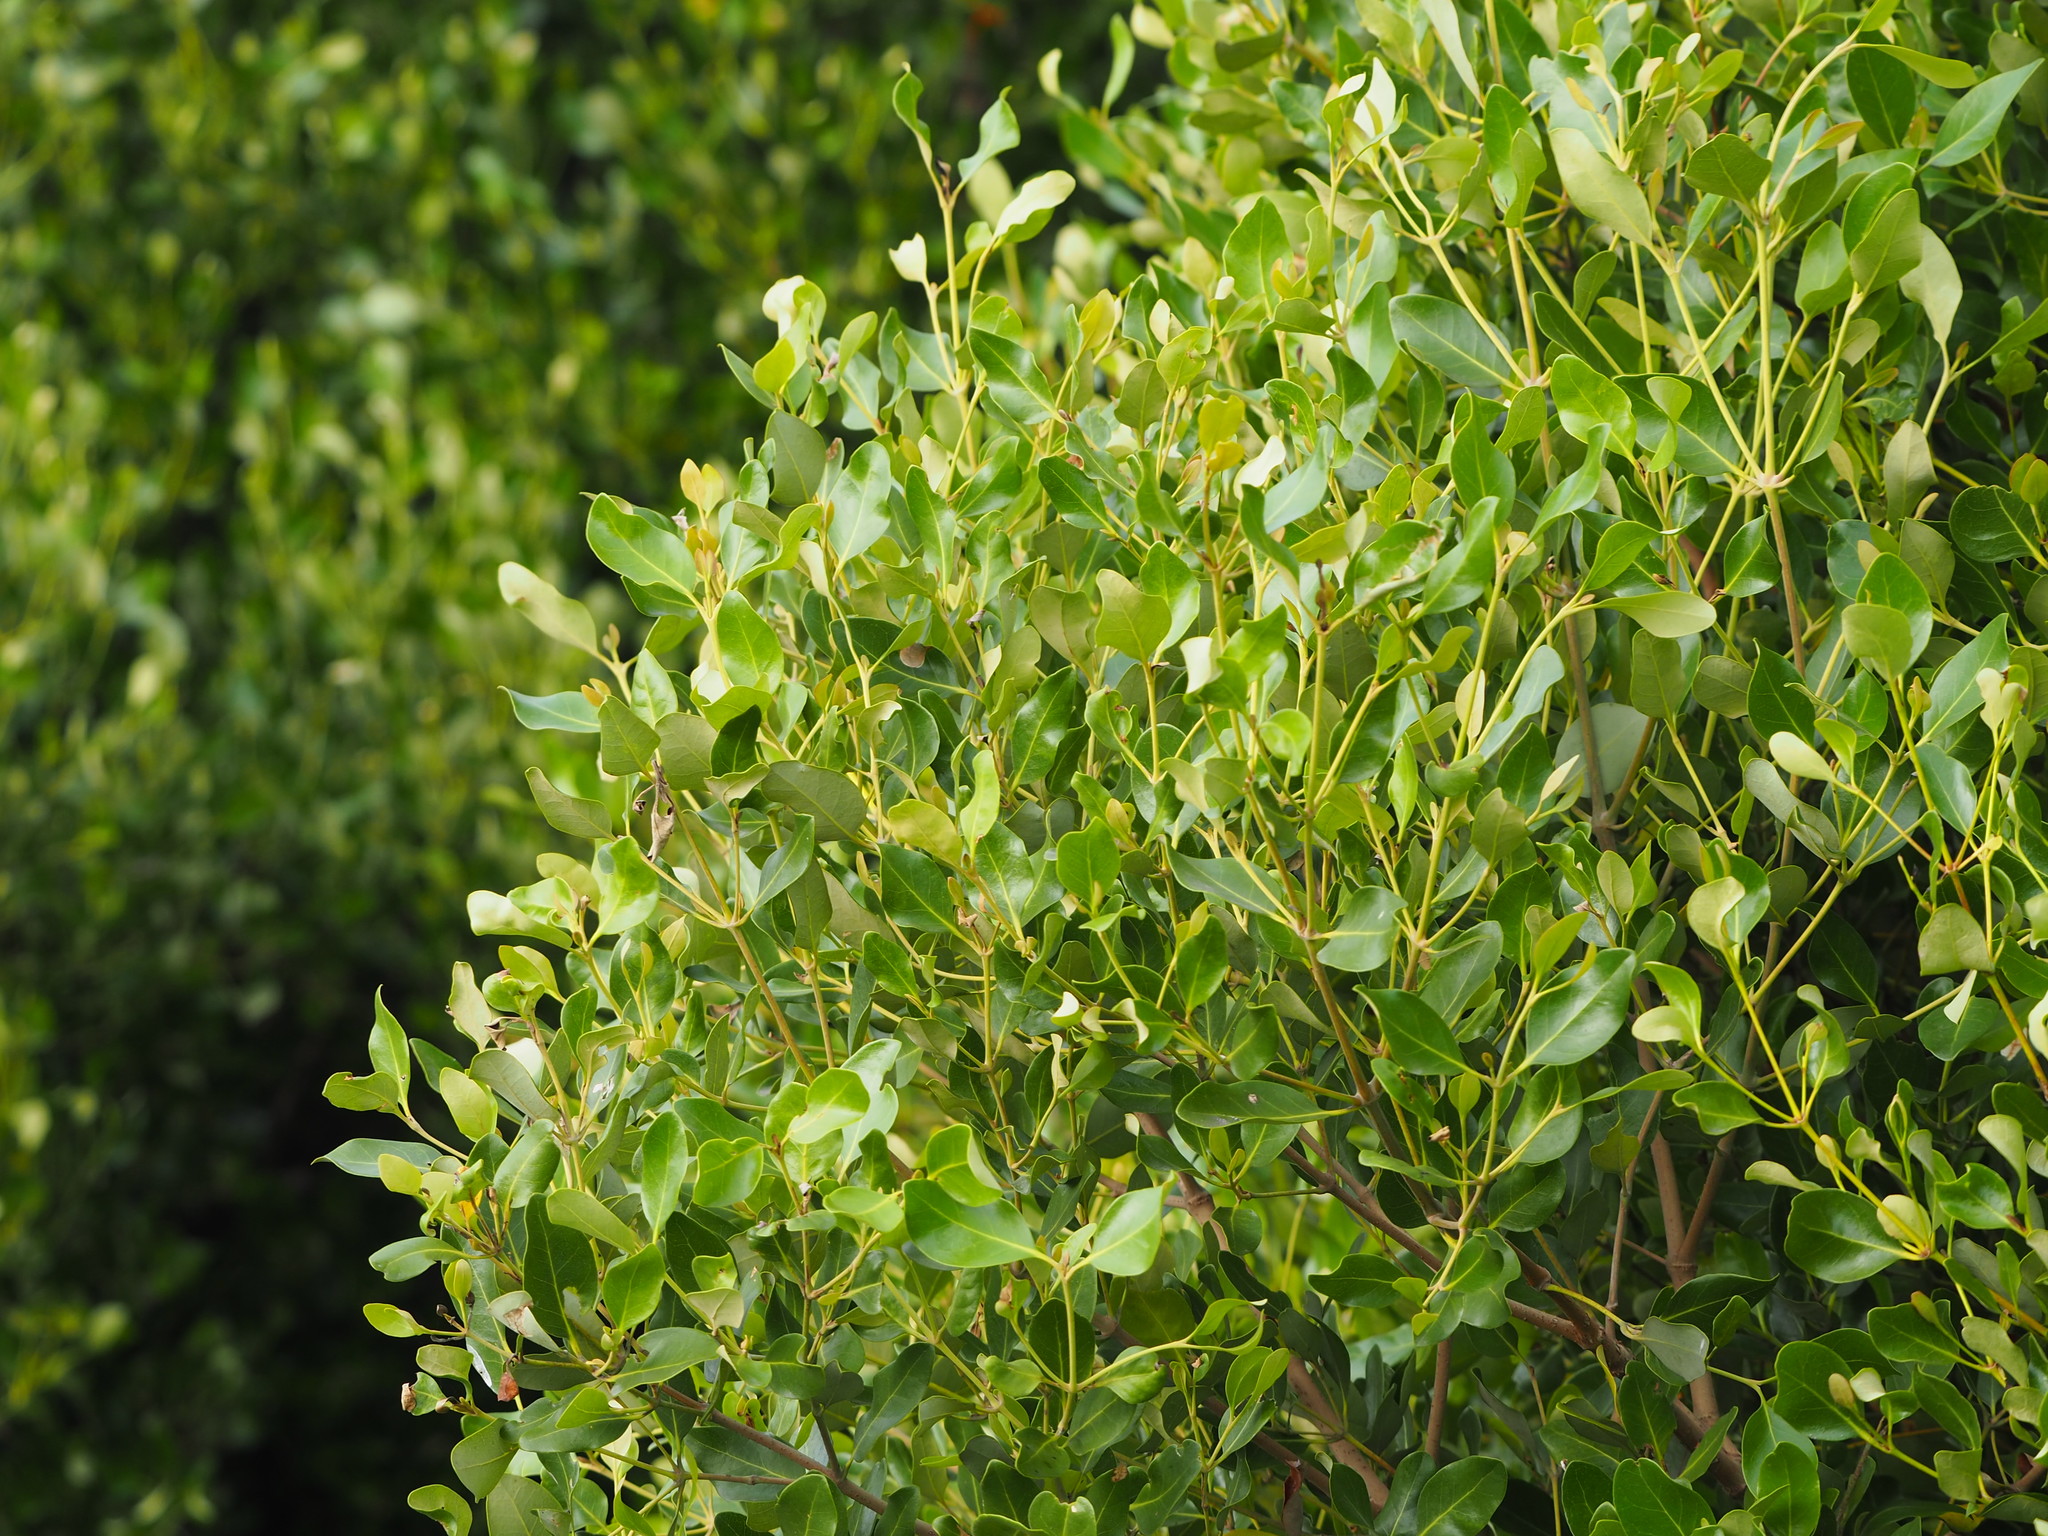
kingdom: Plantae
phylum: Tracheophyta
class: Magnoliopsida
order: Lamiales
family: Acanthaceae
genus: Avicennia
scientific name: Avicennia marina
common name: Gray mangrove
